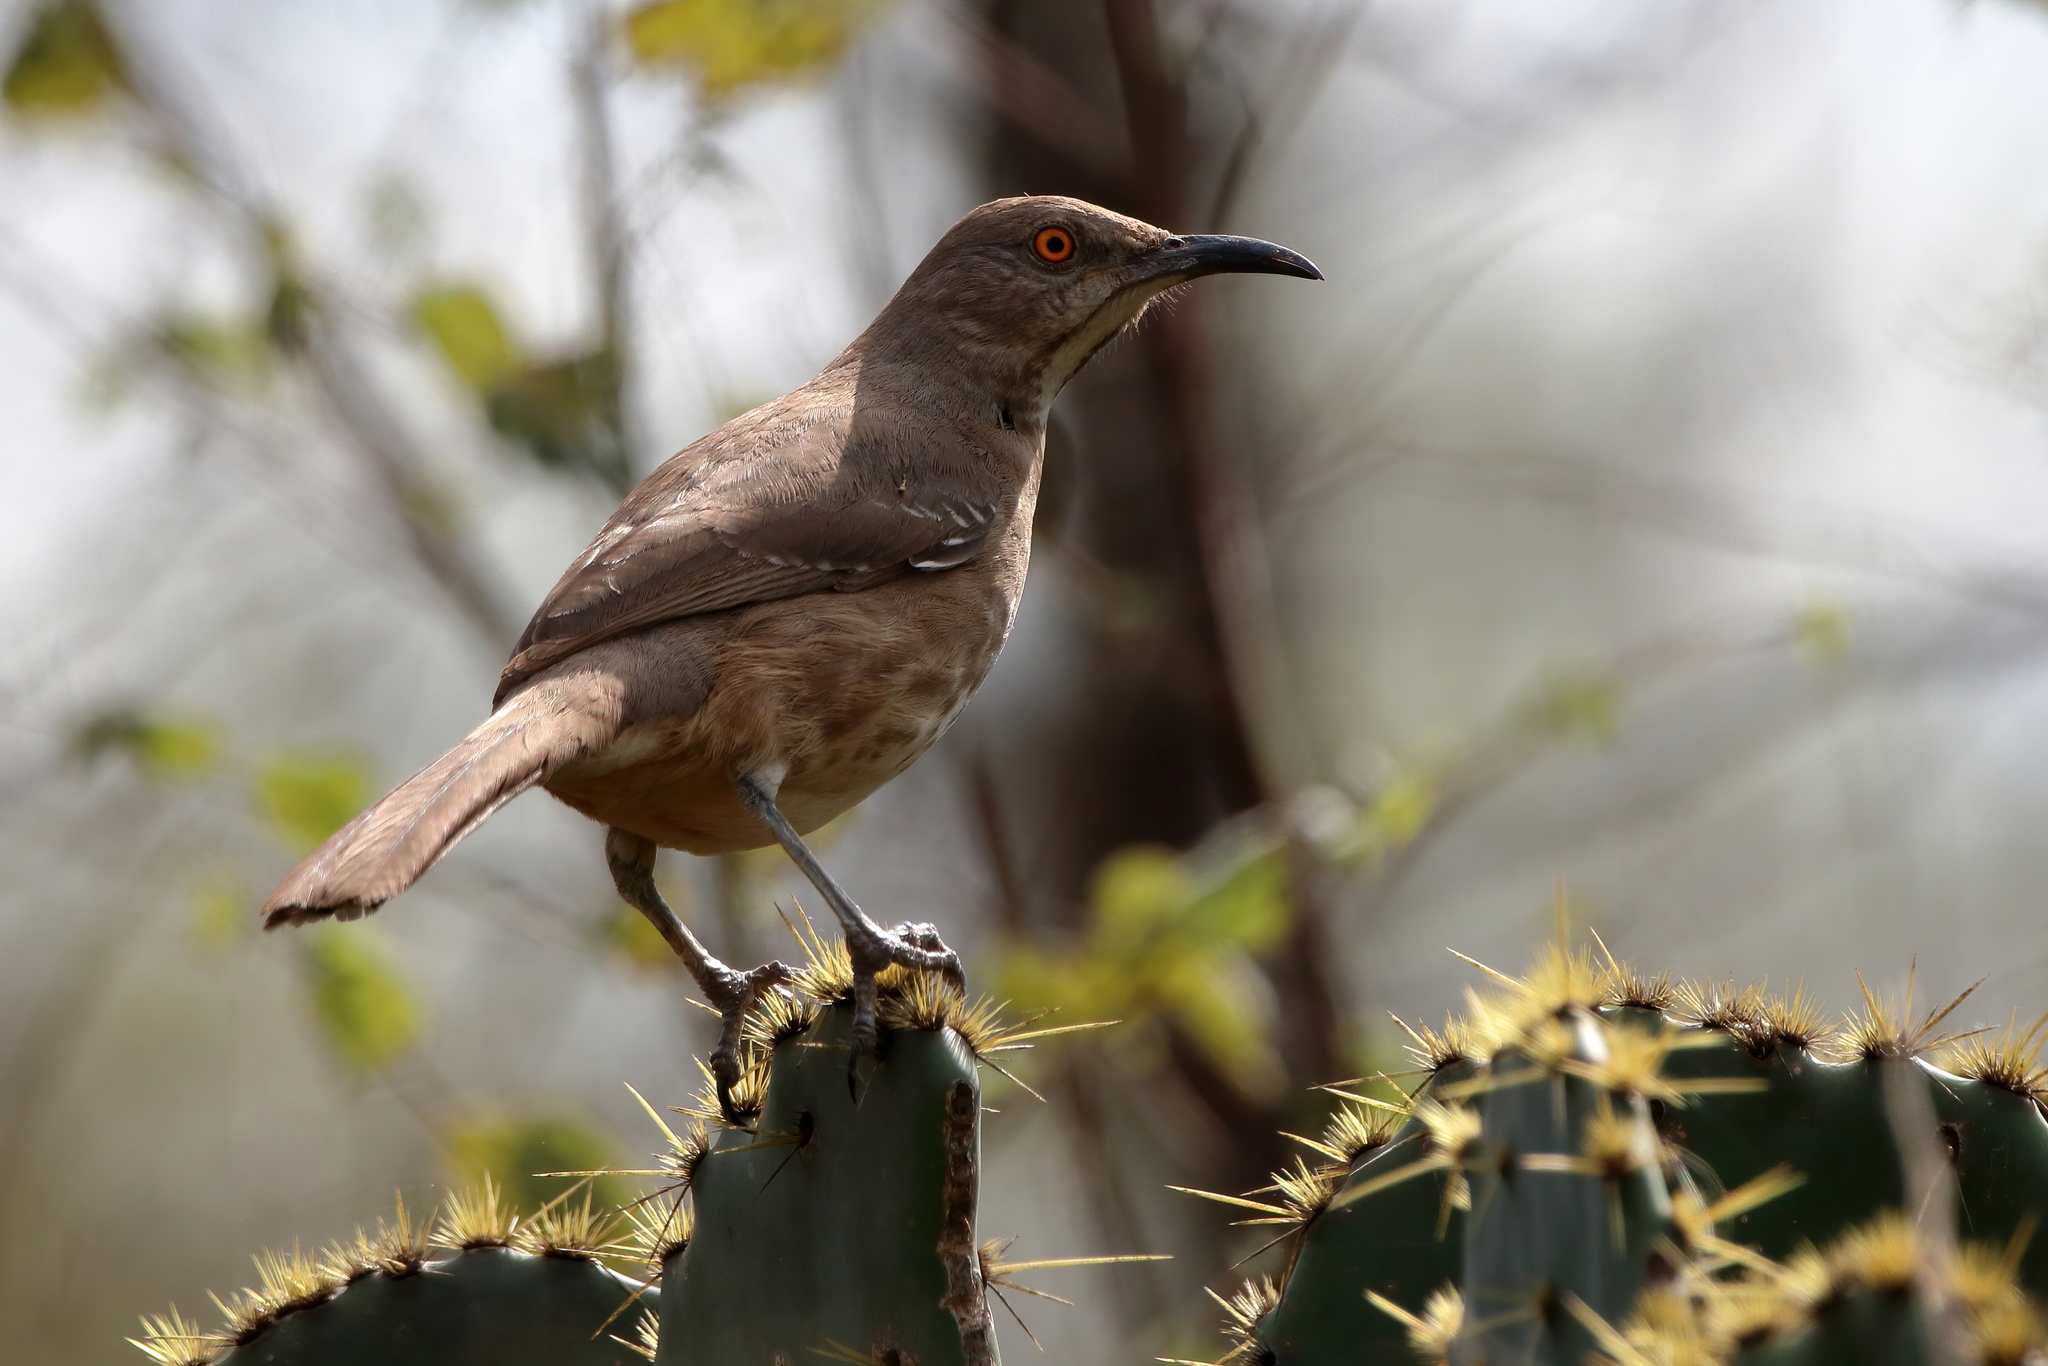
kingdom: Animalia
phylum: Chordata
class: Aves
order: Passeriformes
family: Mimidae
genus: Toxostoma
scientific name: Toxostoma curvirostre
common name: Curve-billed thrasher
